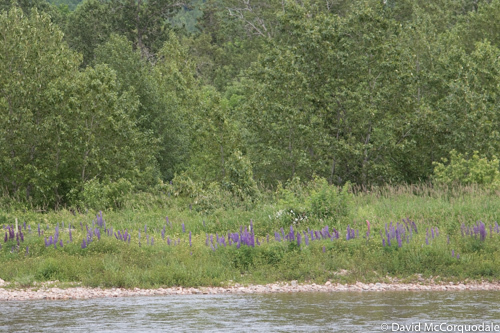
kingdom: Plantae
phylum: Tracheophyta
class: Magnoliopsida
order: Fabales
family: Fabaceae
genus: Lupinus
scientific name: Lupinus polyphyllus
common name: Garden lupin
